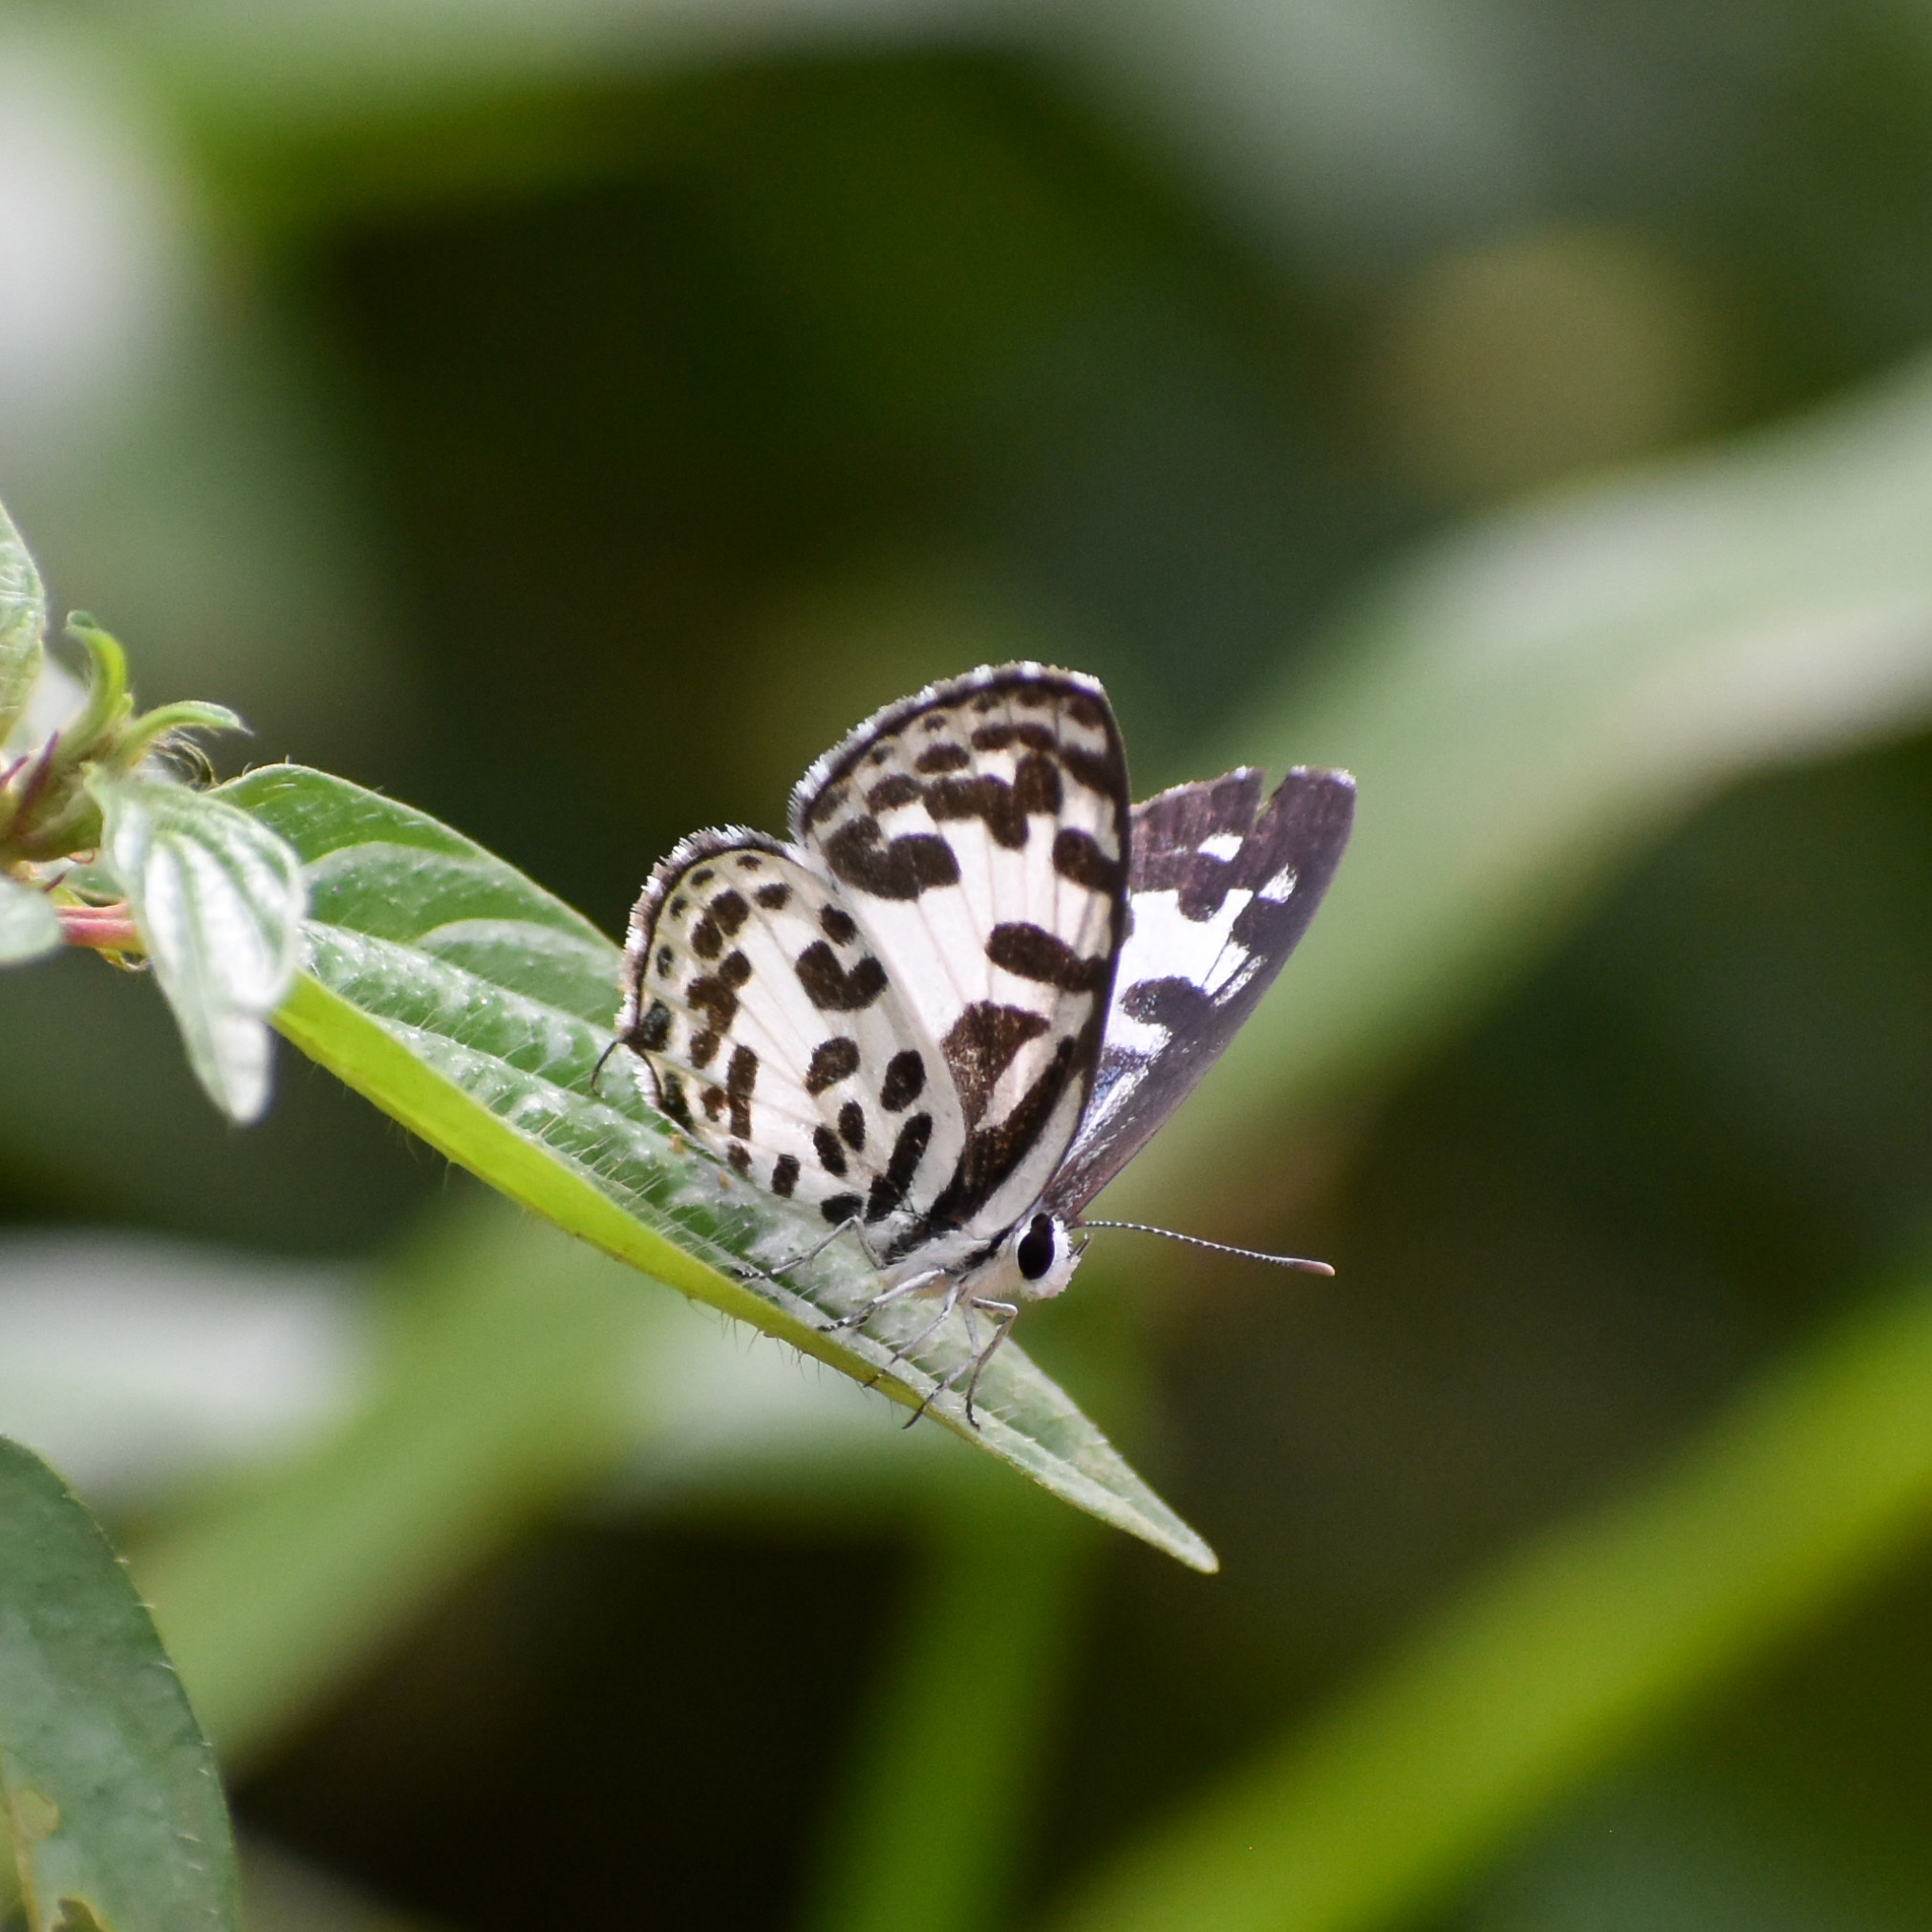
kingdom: Animalia
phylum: Arthropoda
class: Insecta
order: Lepidoptera
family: Lycaenidae
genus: Castalius
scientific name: Castalius rosimon
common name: Common pierrot
